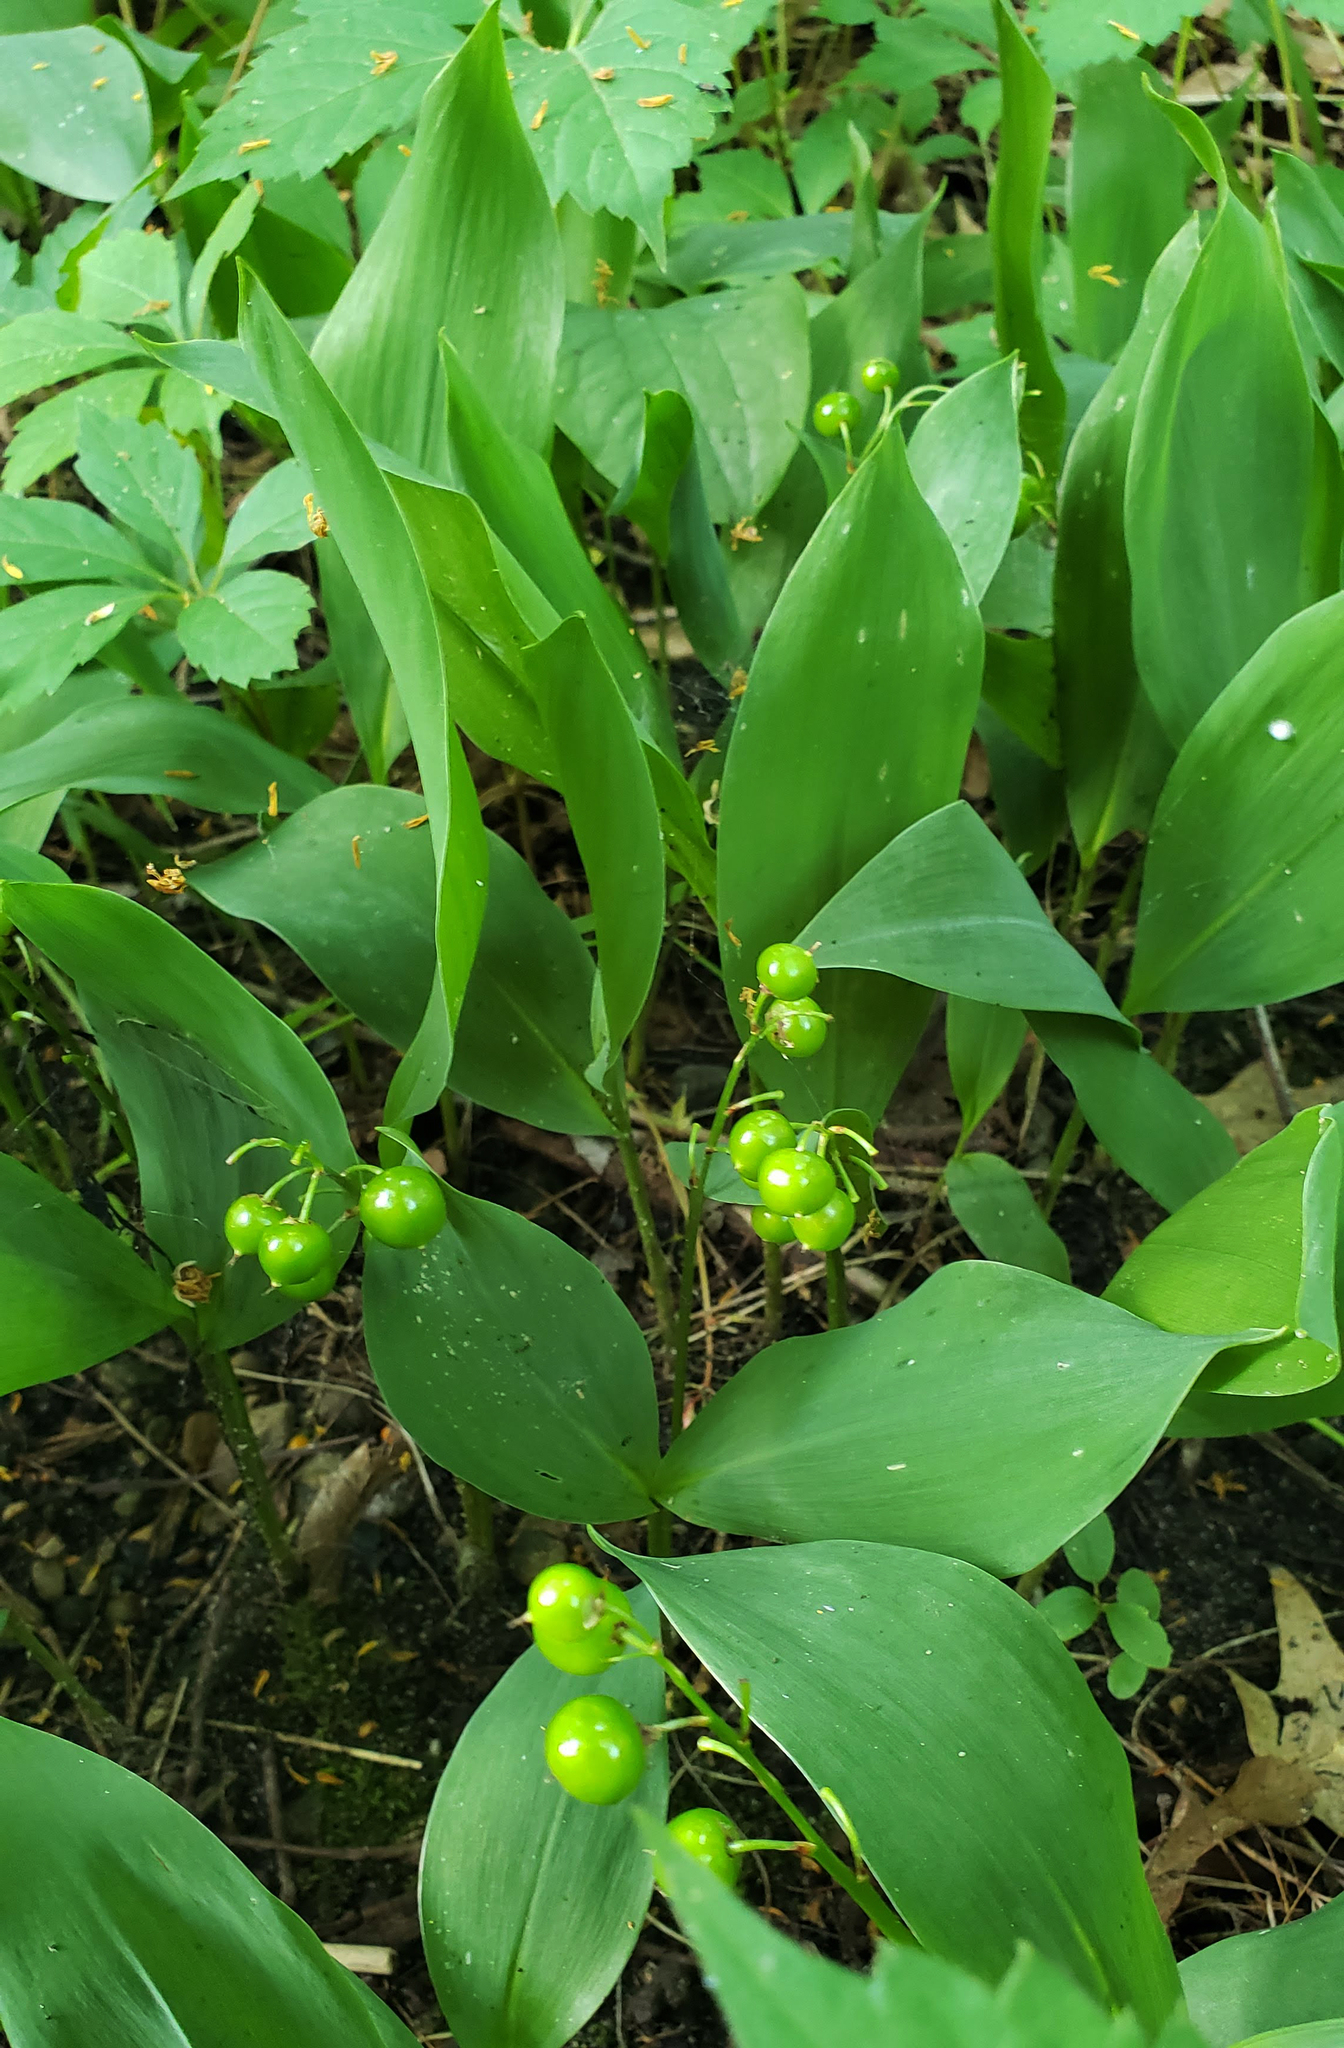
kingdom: Plantae
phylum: Tracheophyta
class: Liliopsida
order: Asparagales
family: Asparagaceae
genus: Convallaria
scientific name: Convallaria majalis
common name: Lily-of-the-valley
